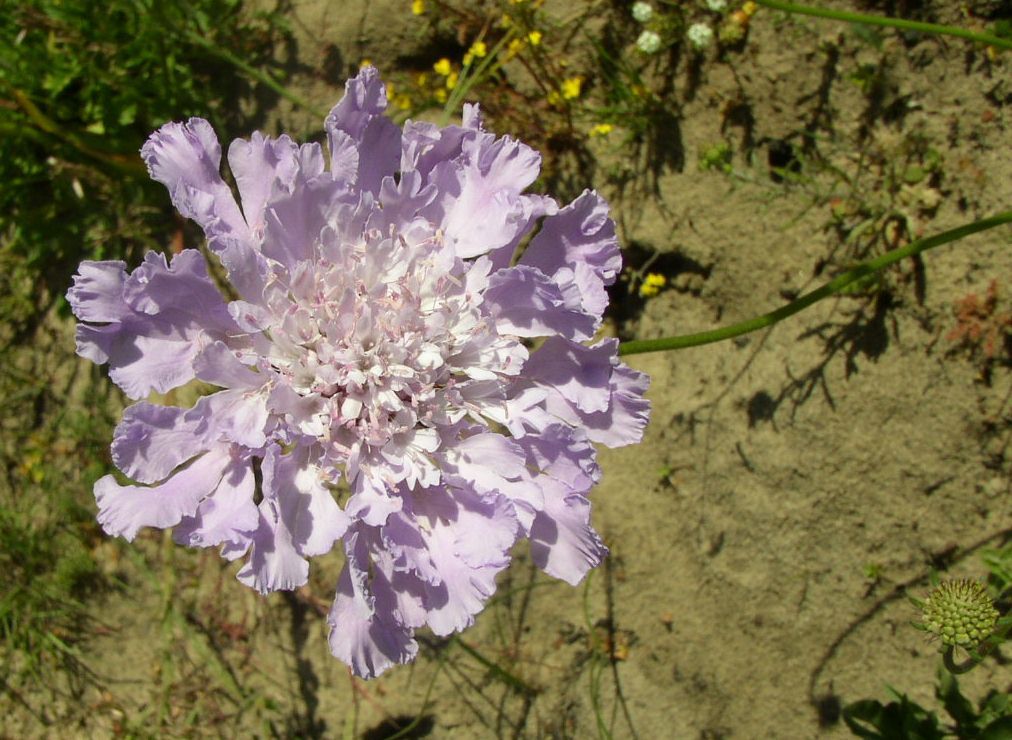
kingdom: Plantae
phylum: Tracheophyta
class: Magnoliopsida
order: Dipsacales
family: Caprifoliaceae
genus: Scabiosa
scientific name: Scabiosa africana
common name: Cape scabious
